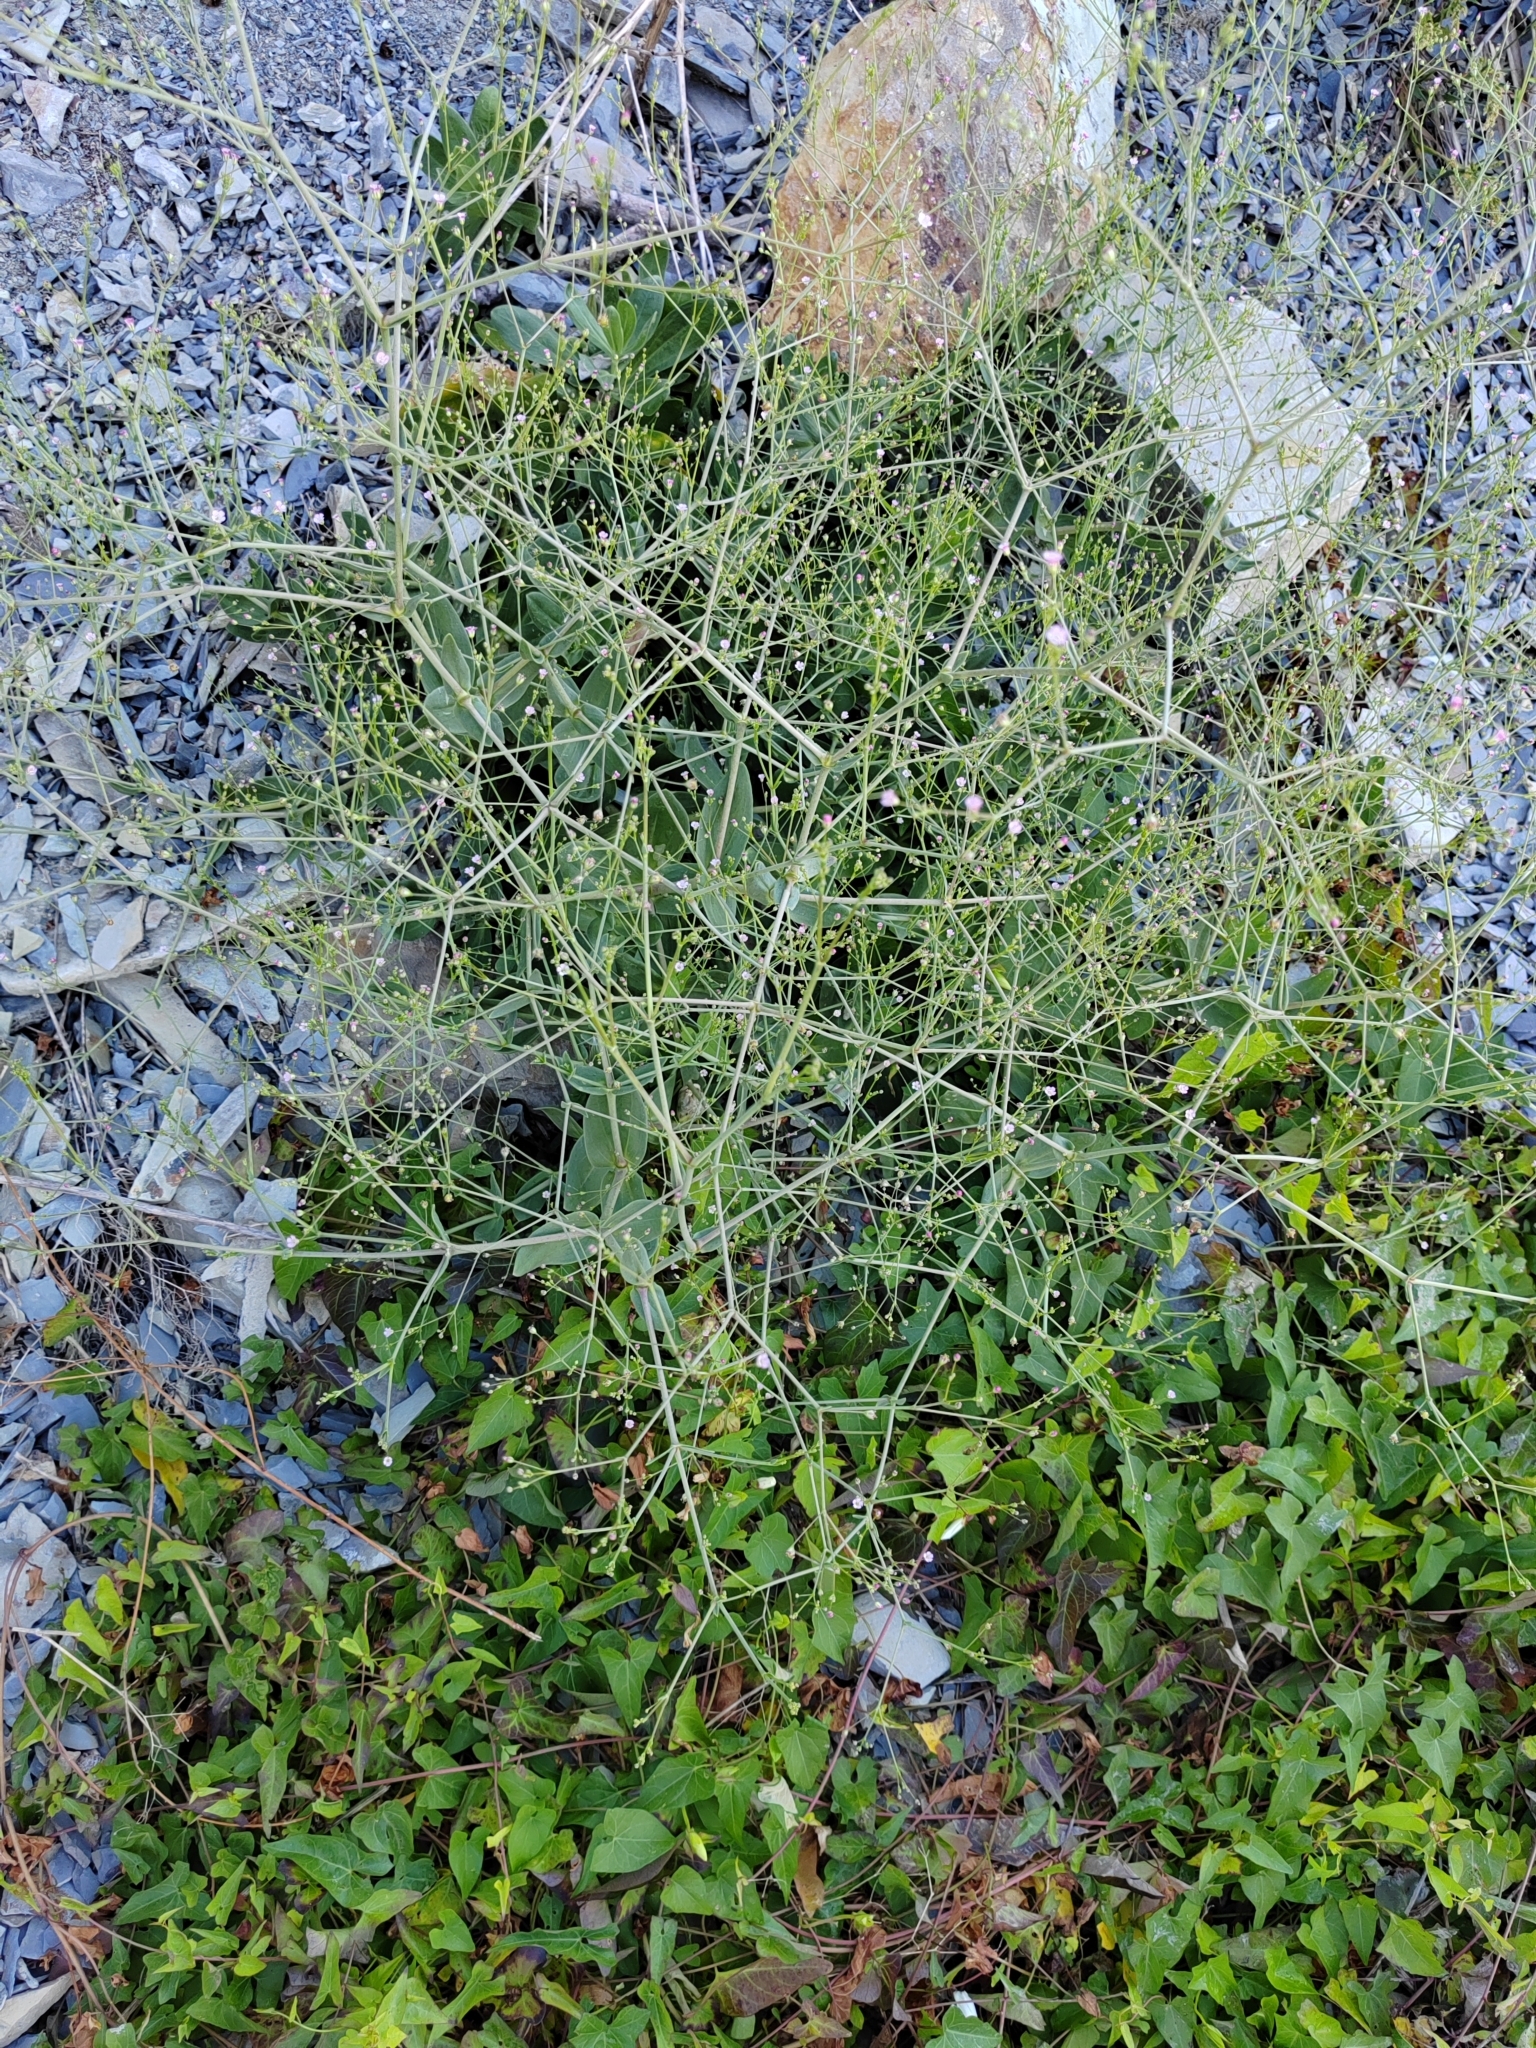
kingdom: Plantae
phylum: Tracheophyta
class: Magnoliopsida
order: Caryophyllales
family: Caryophyllaceae
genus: Gypsophila
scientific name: Gypsophila perfoliata
